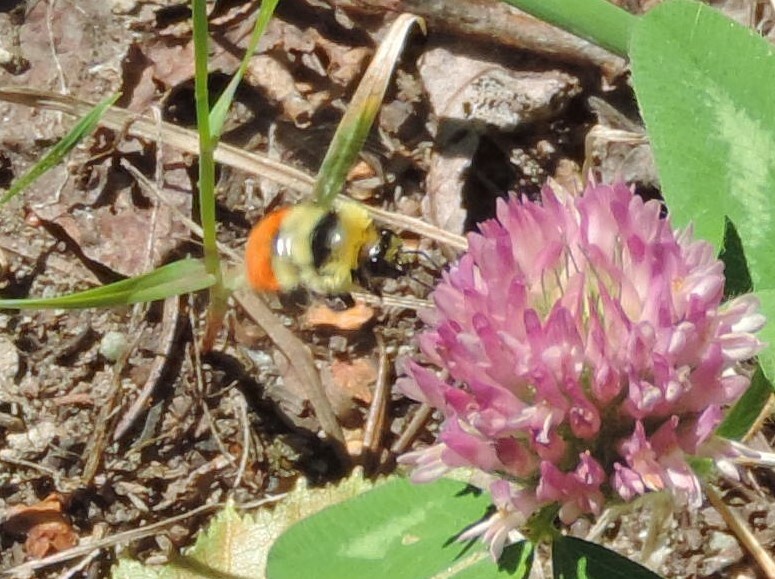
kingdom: Animalia
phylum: Arthropoda
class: Insecta
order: Hymenoptera
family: Apidae
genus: Bombus
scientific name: Bombus huntii
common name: Hunt bumble bee
